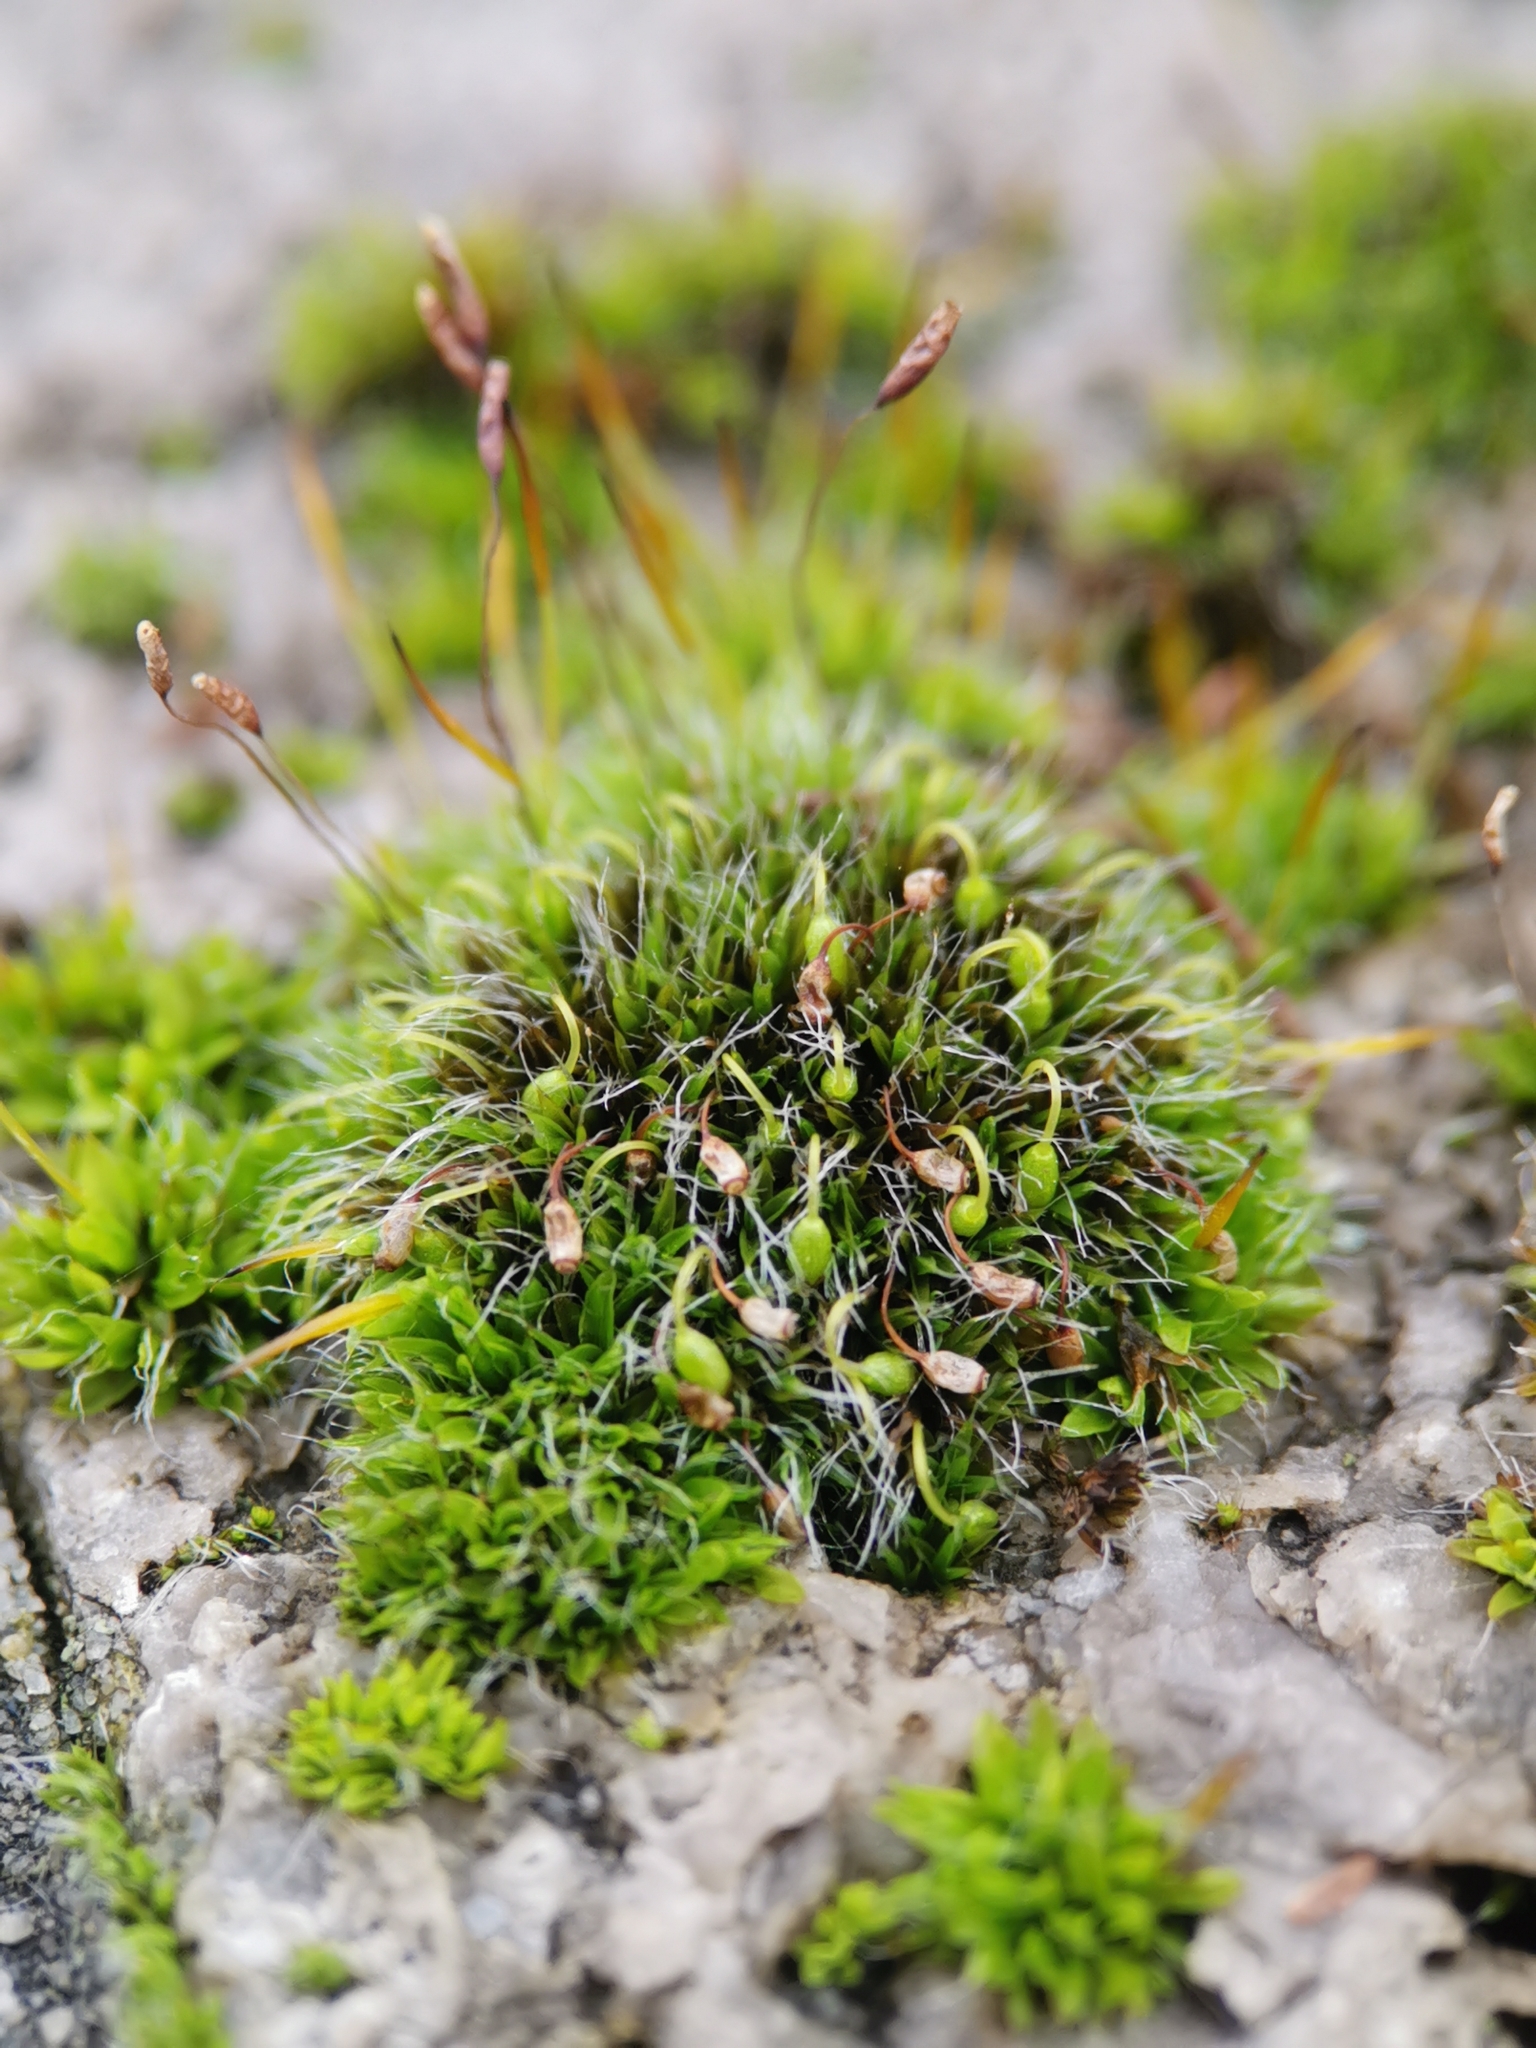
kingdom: Plantae
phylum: Bryophyta
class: Bryopsida
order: Grimmiales
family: Grimmiaceae
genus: Grimmia
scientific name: Grimmia pulvinata
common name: Grey-cushioned grimmia
